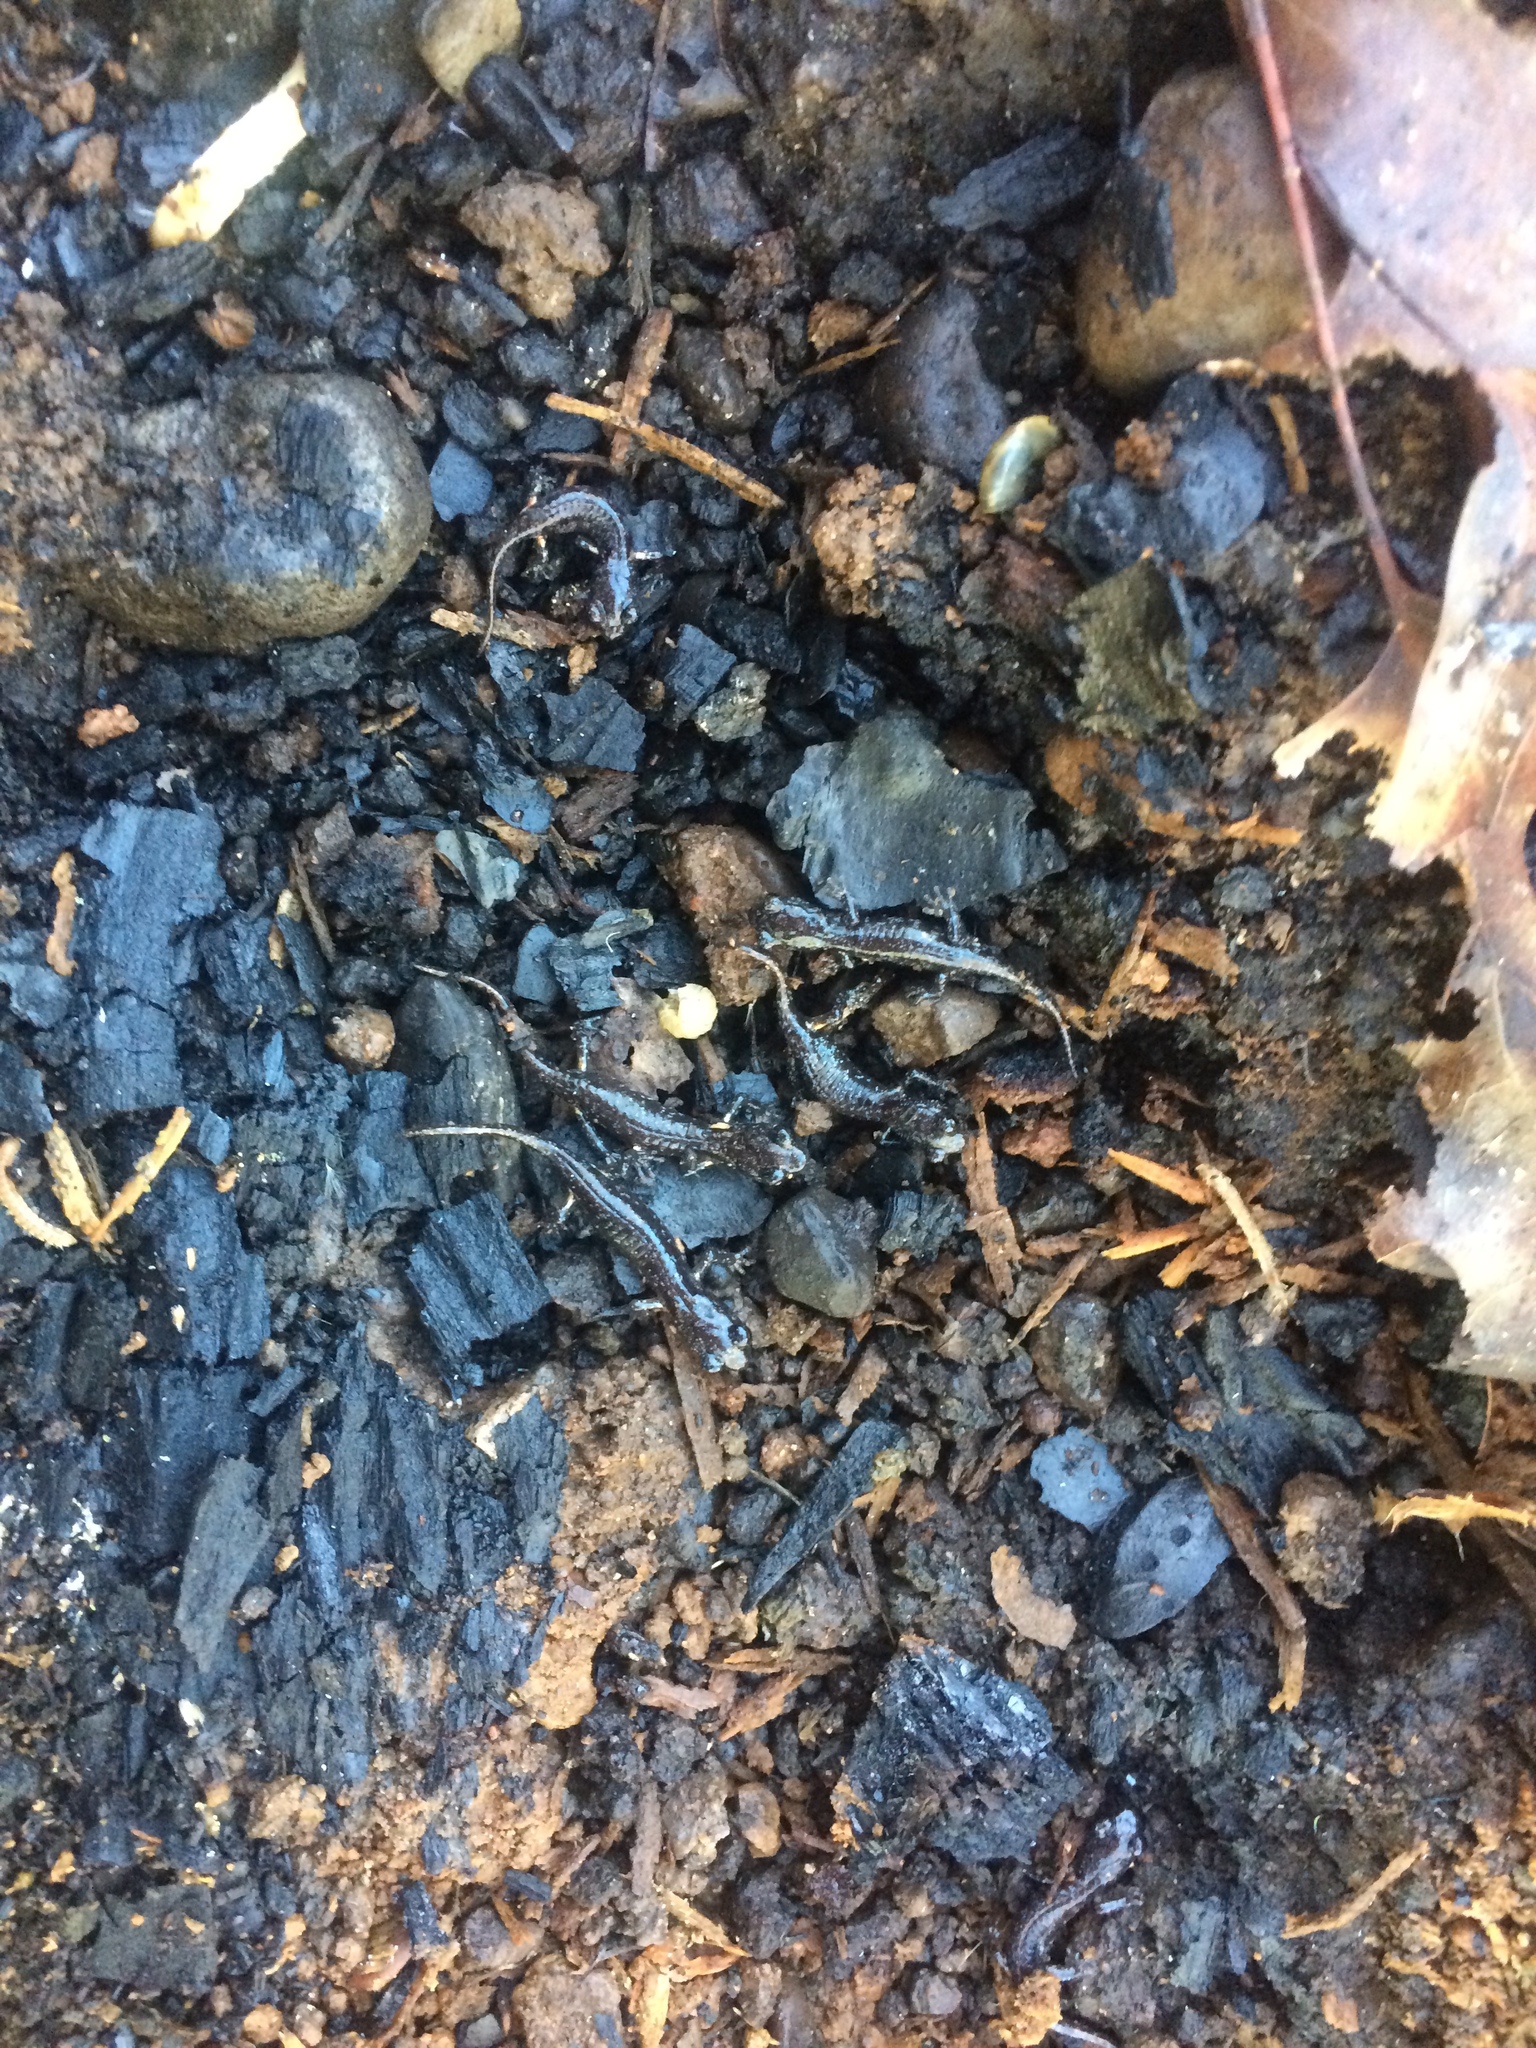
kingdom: Animalia
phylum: Chordata
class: Amphibia
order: Caudata
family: Plethodontidae
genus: Aneides
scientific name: Aneides lugubris
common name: Arboreal salamander
